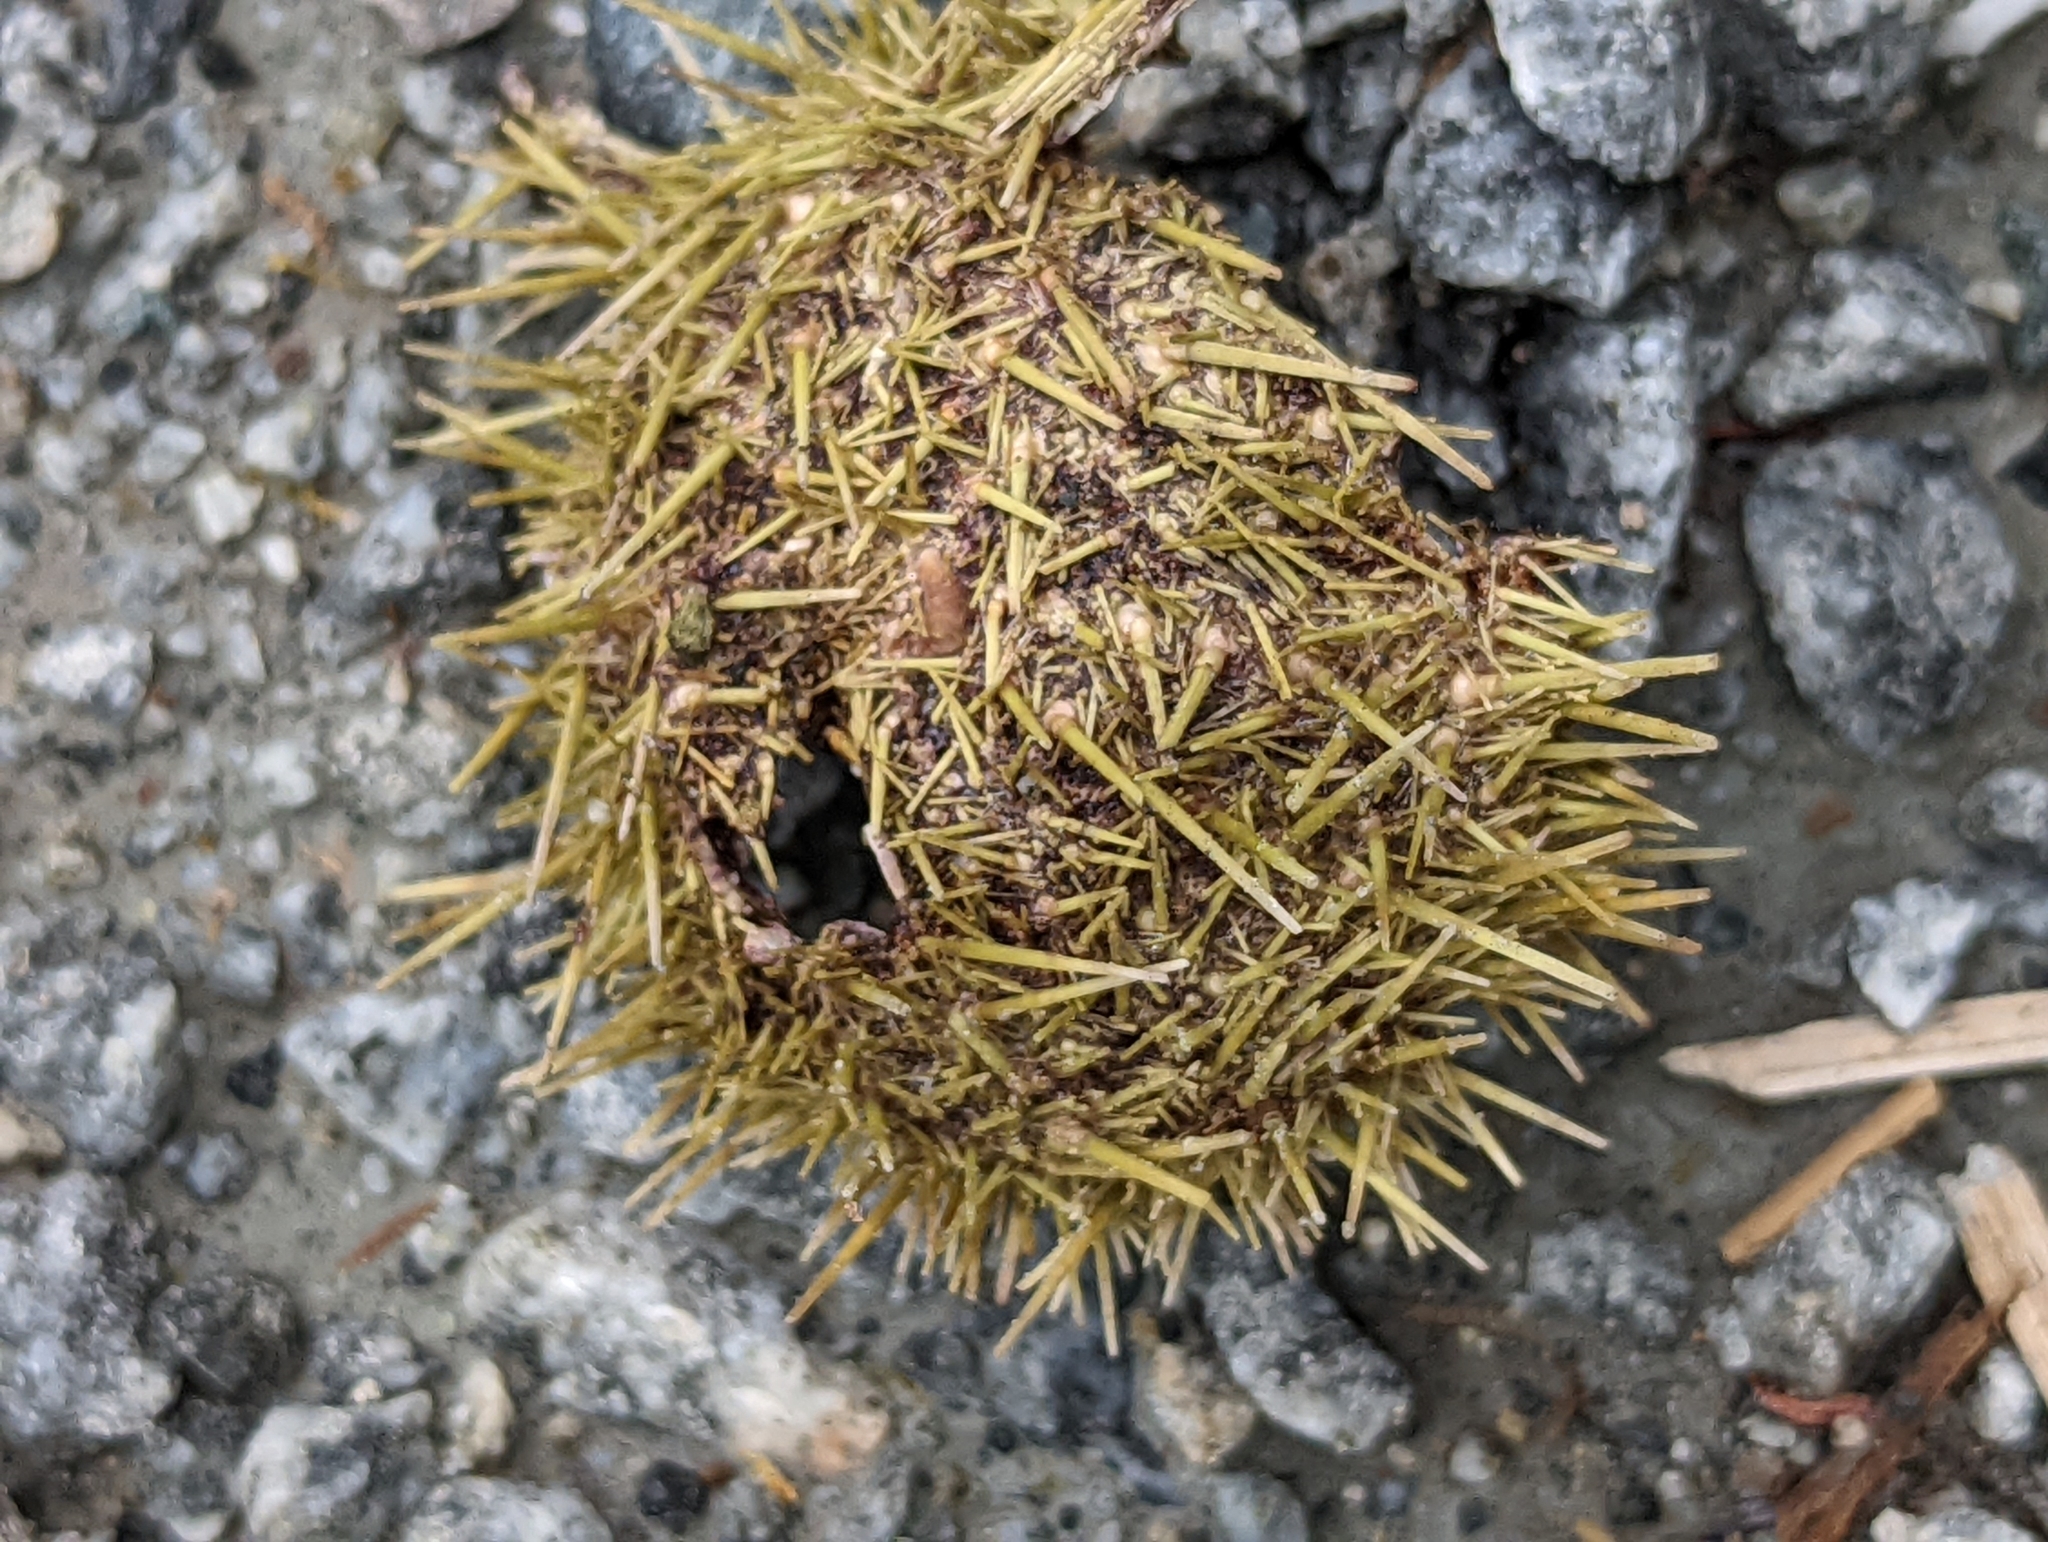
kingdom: Animalia
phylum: Echinodermata
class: Echinoidea
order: Camarodonta
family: Strongylocentrotidae
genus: Strongylocentrotus
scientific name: Strongylocentrotus droebachiensis
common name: Northern sea urchin
